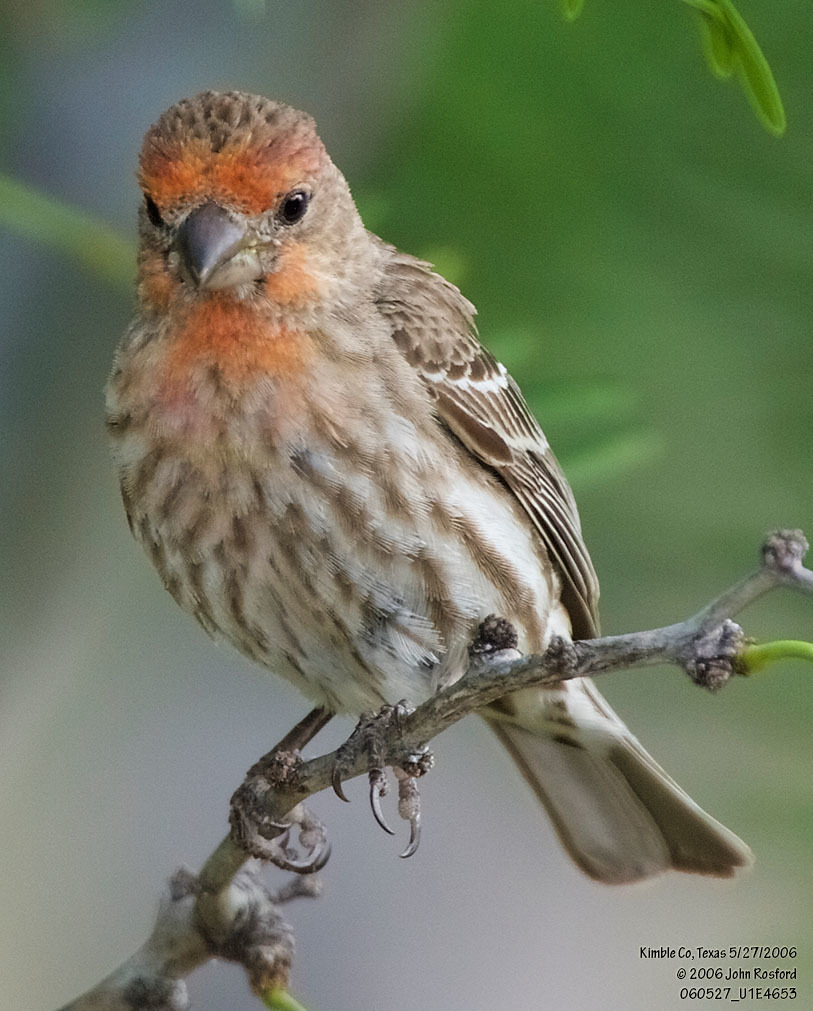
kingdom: Animalia
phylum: Chordata
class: Aves
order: Passeriformes
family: Fringillidae
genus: Haemorhous
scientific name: Haemorhous mexicanus
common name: House finch
